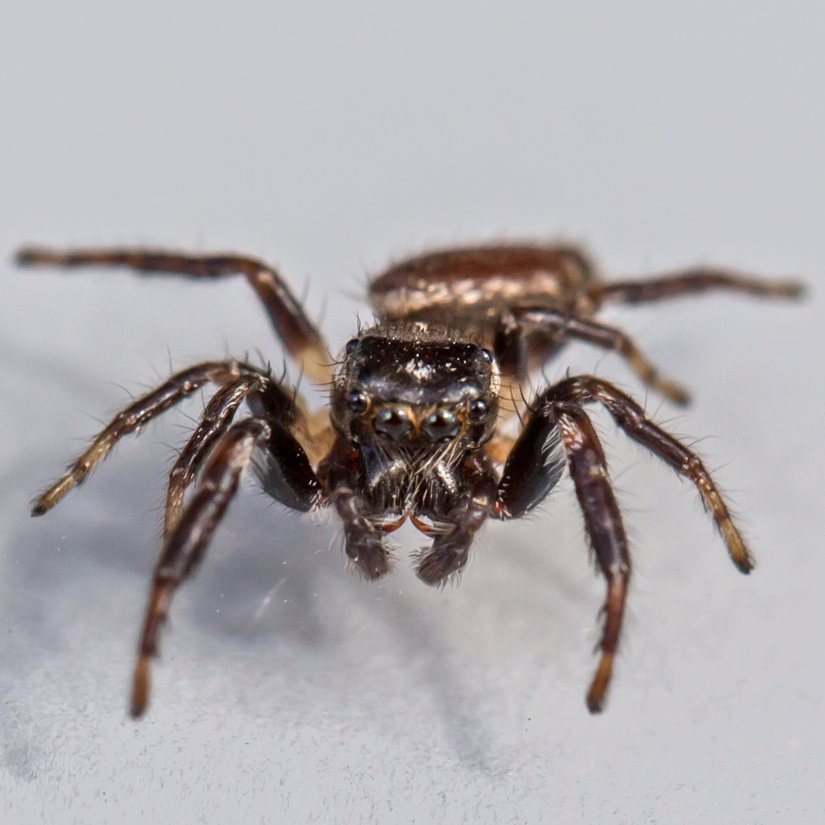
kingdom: Animalia
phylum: Arthropoda
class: Arachnida
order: Araneae
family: Salticidae
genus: Eris
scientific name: Eris militaris
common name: Bronze jumper
